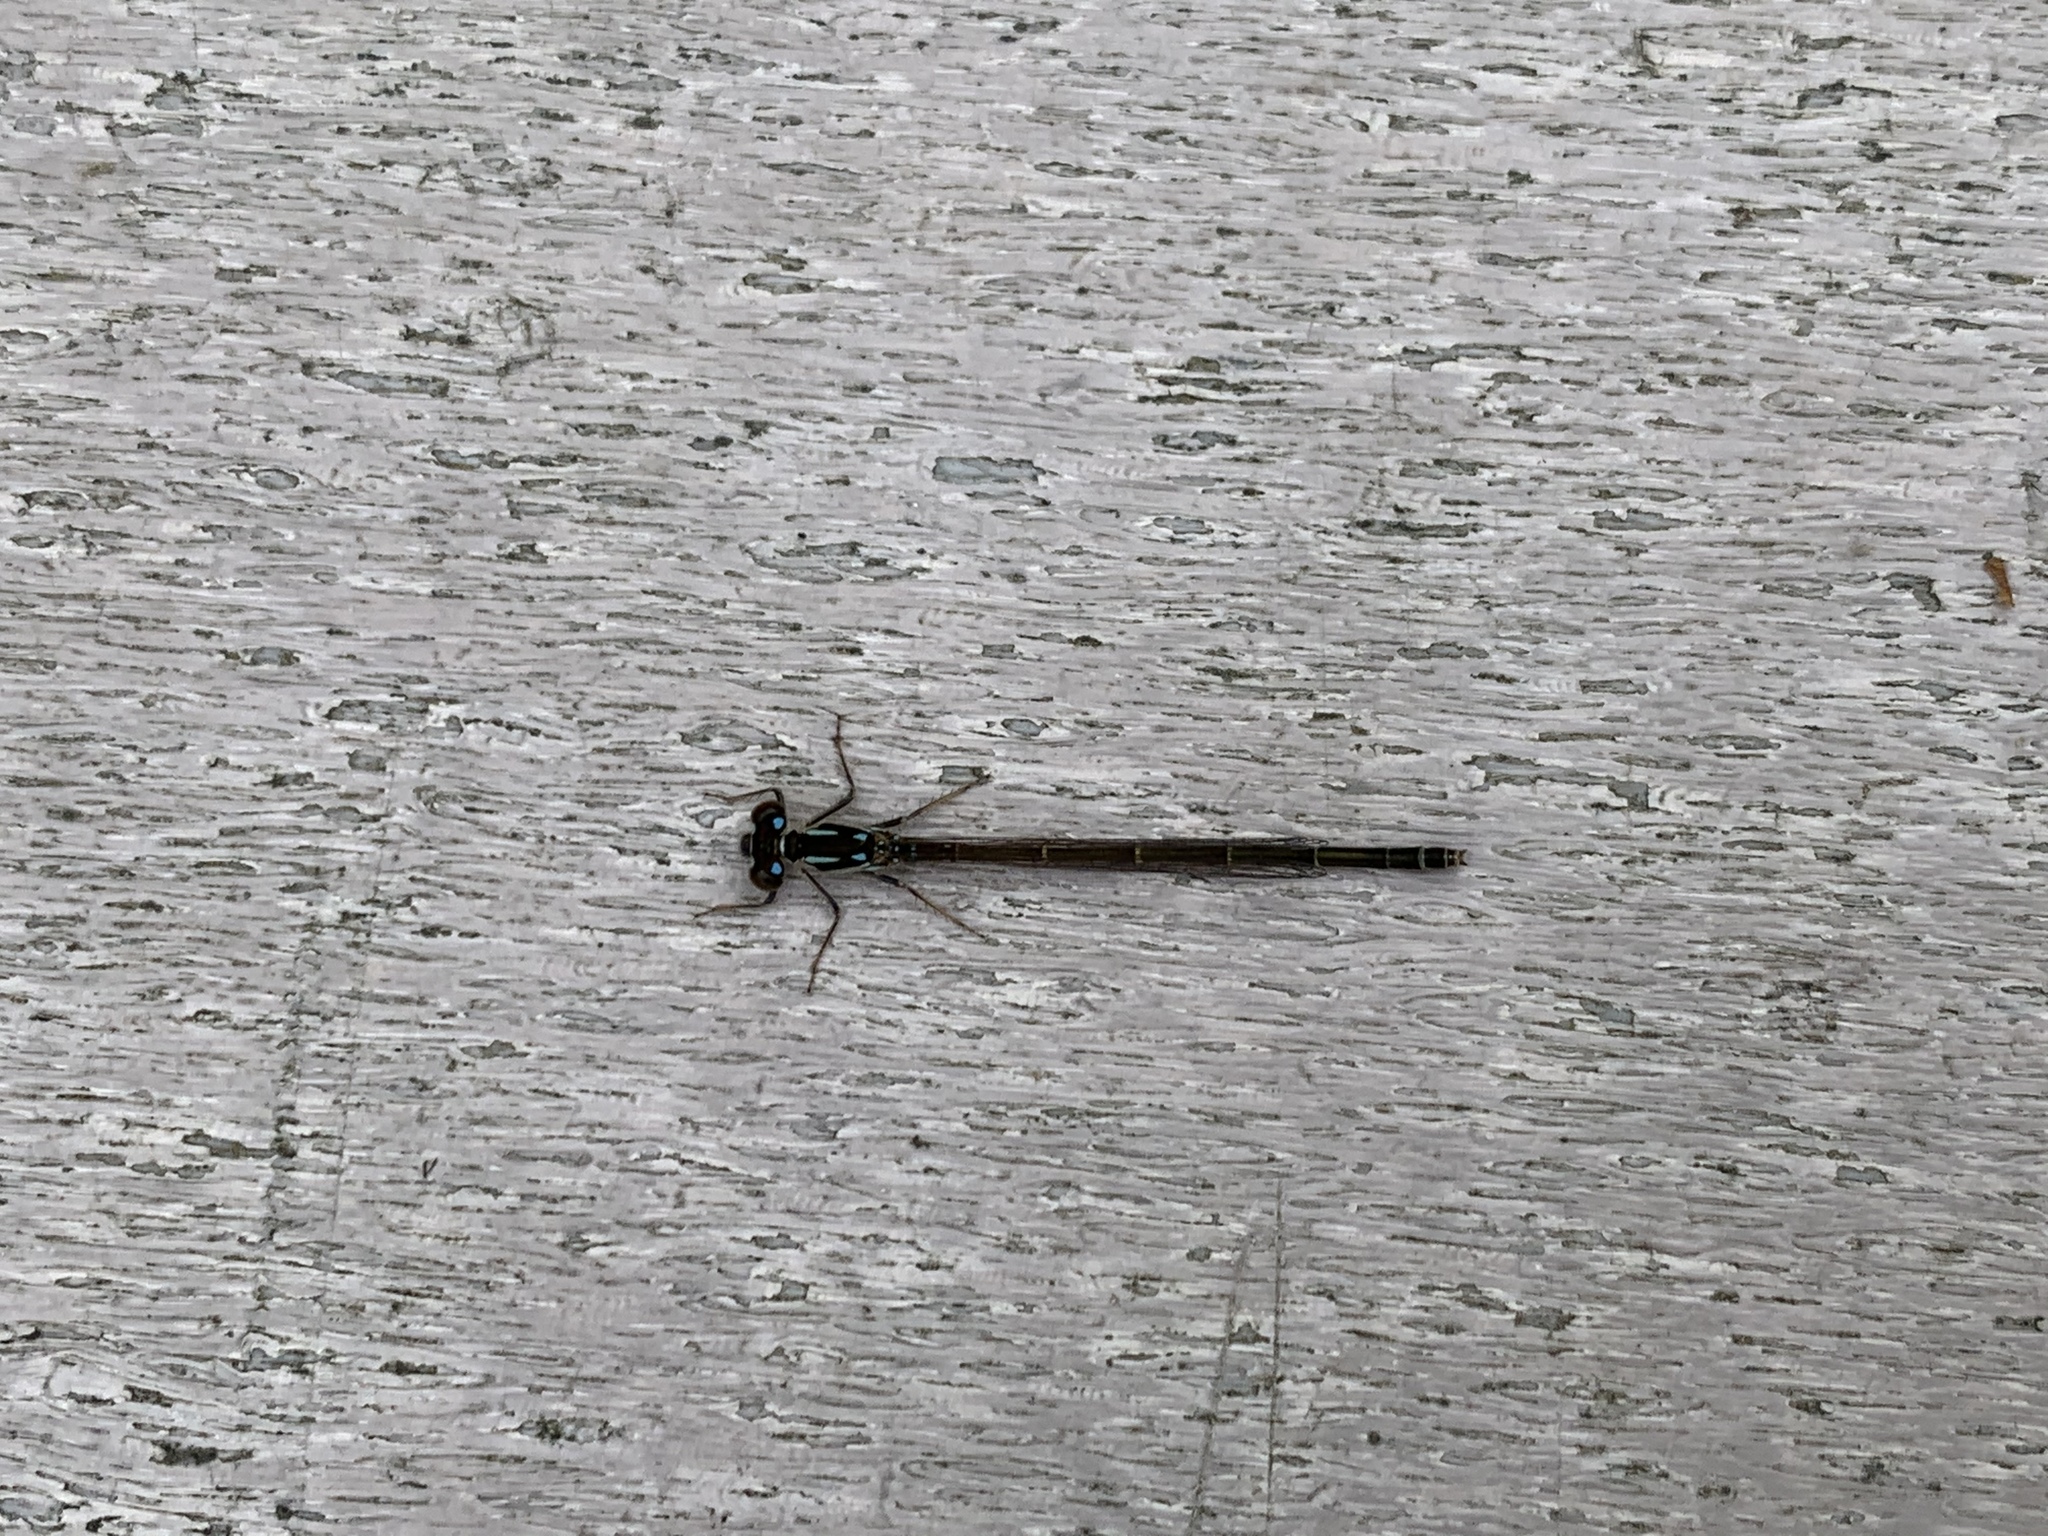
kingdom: Animalia
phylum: Arthropoda
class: Insecta
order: Odonata
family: Coenagrionidae
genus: Ischnura
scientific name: Ischnura posita
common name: Fragile forktail
